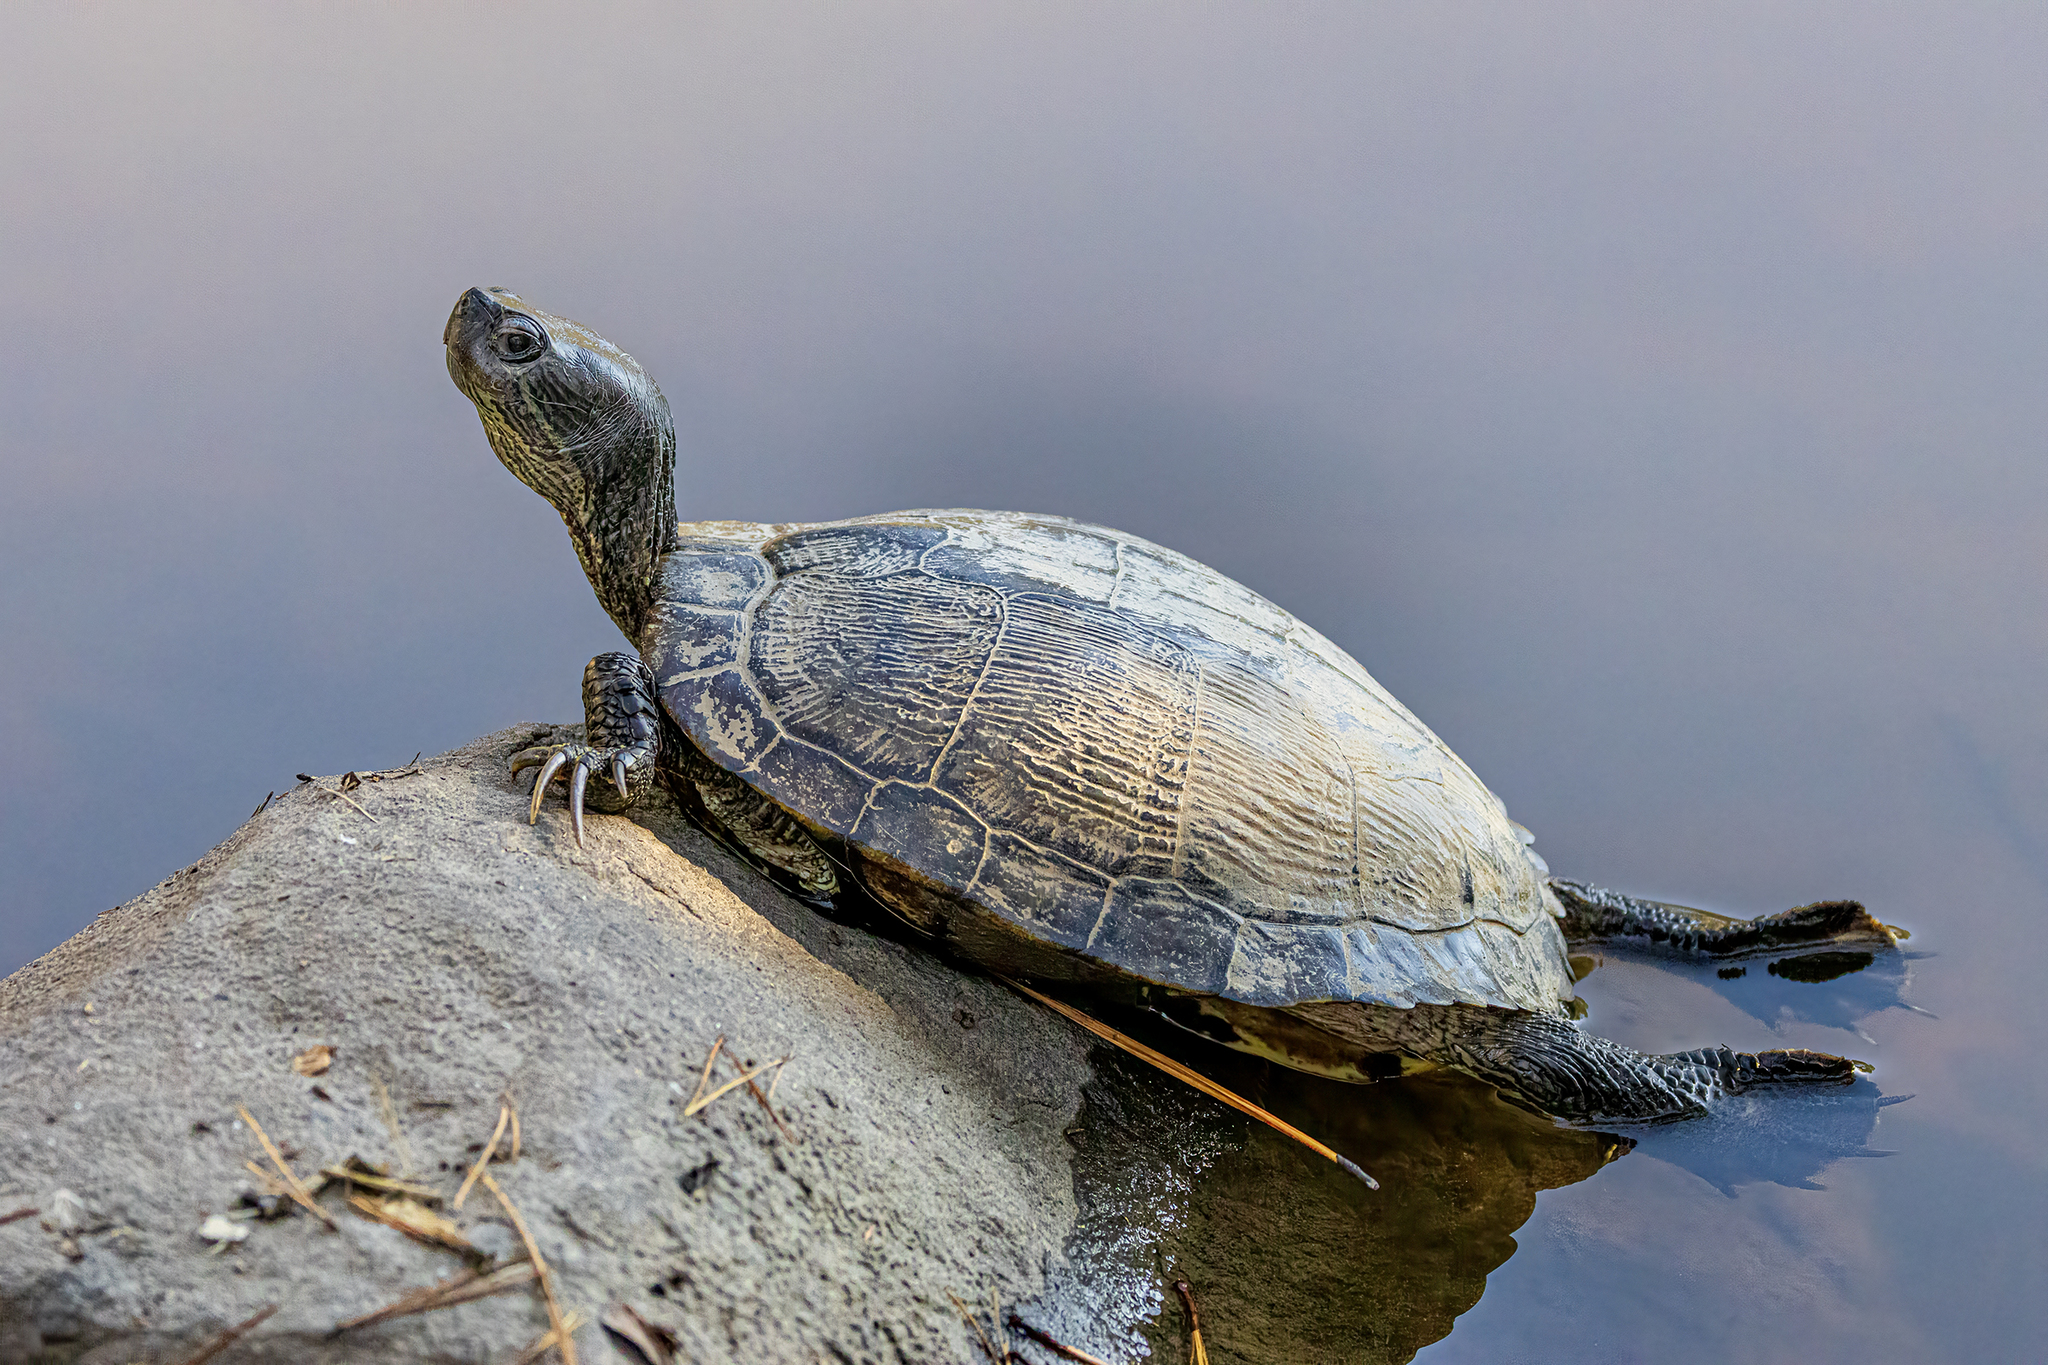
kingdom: Animalia
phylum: Chordata
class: Testudines
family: Emydidae
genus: Trachemys
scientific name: Trachemys scripta
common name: Slider
